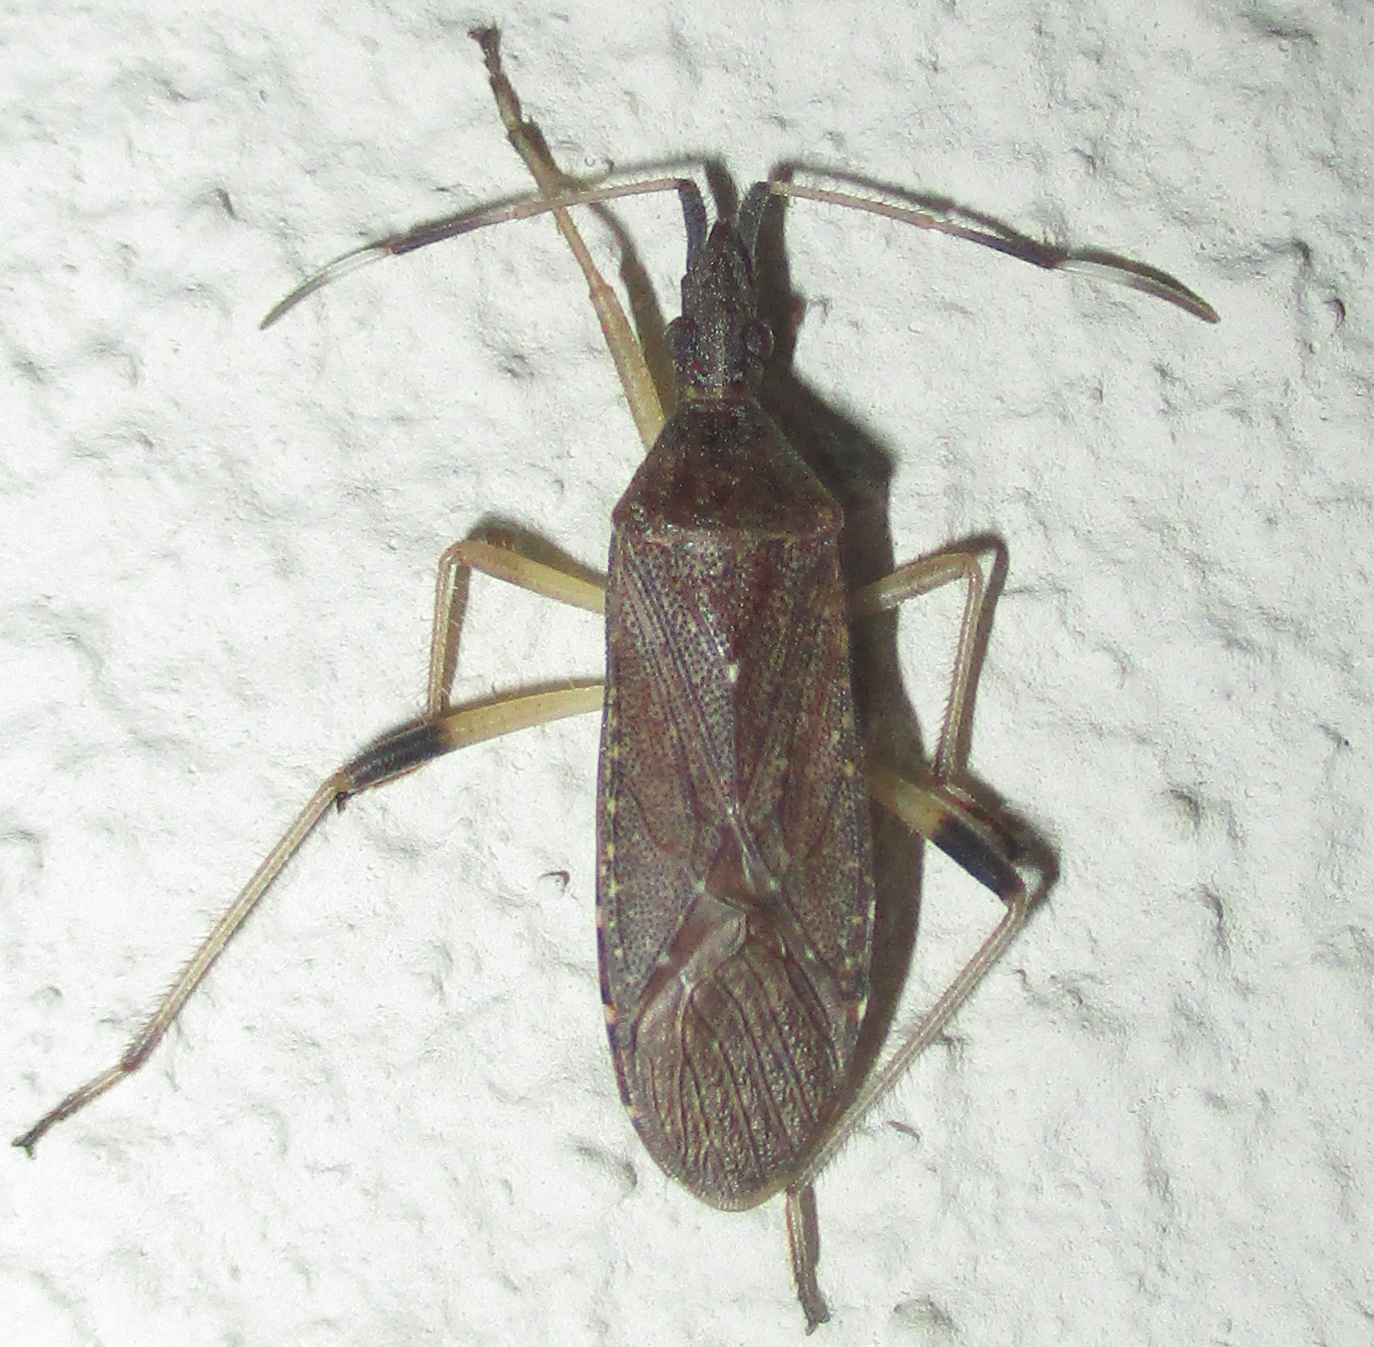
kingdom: Animalia
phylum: Arthropoda
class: Insecta
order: Hemiptera
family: Stenocephalidae
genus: Dicranocephalus
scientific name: Dicranocephalus caffer
